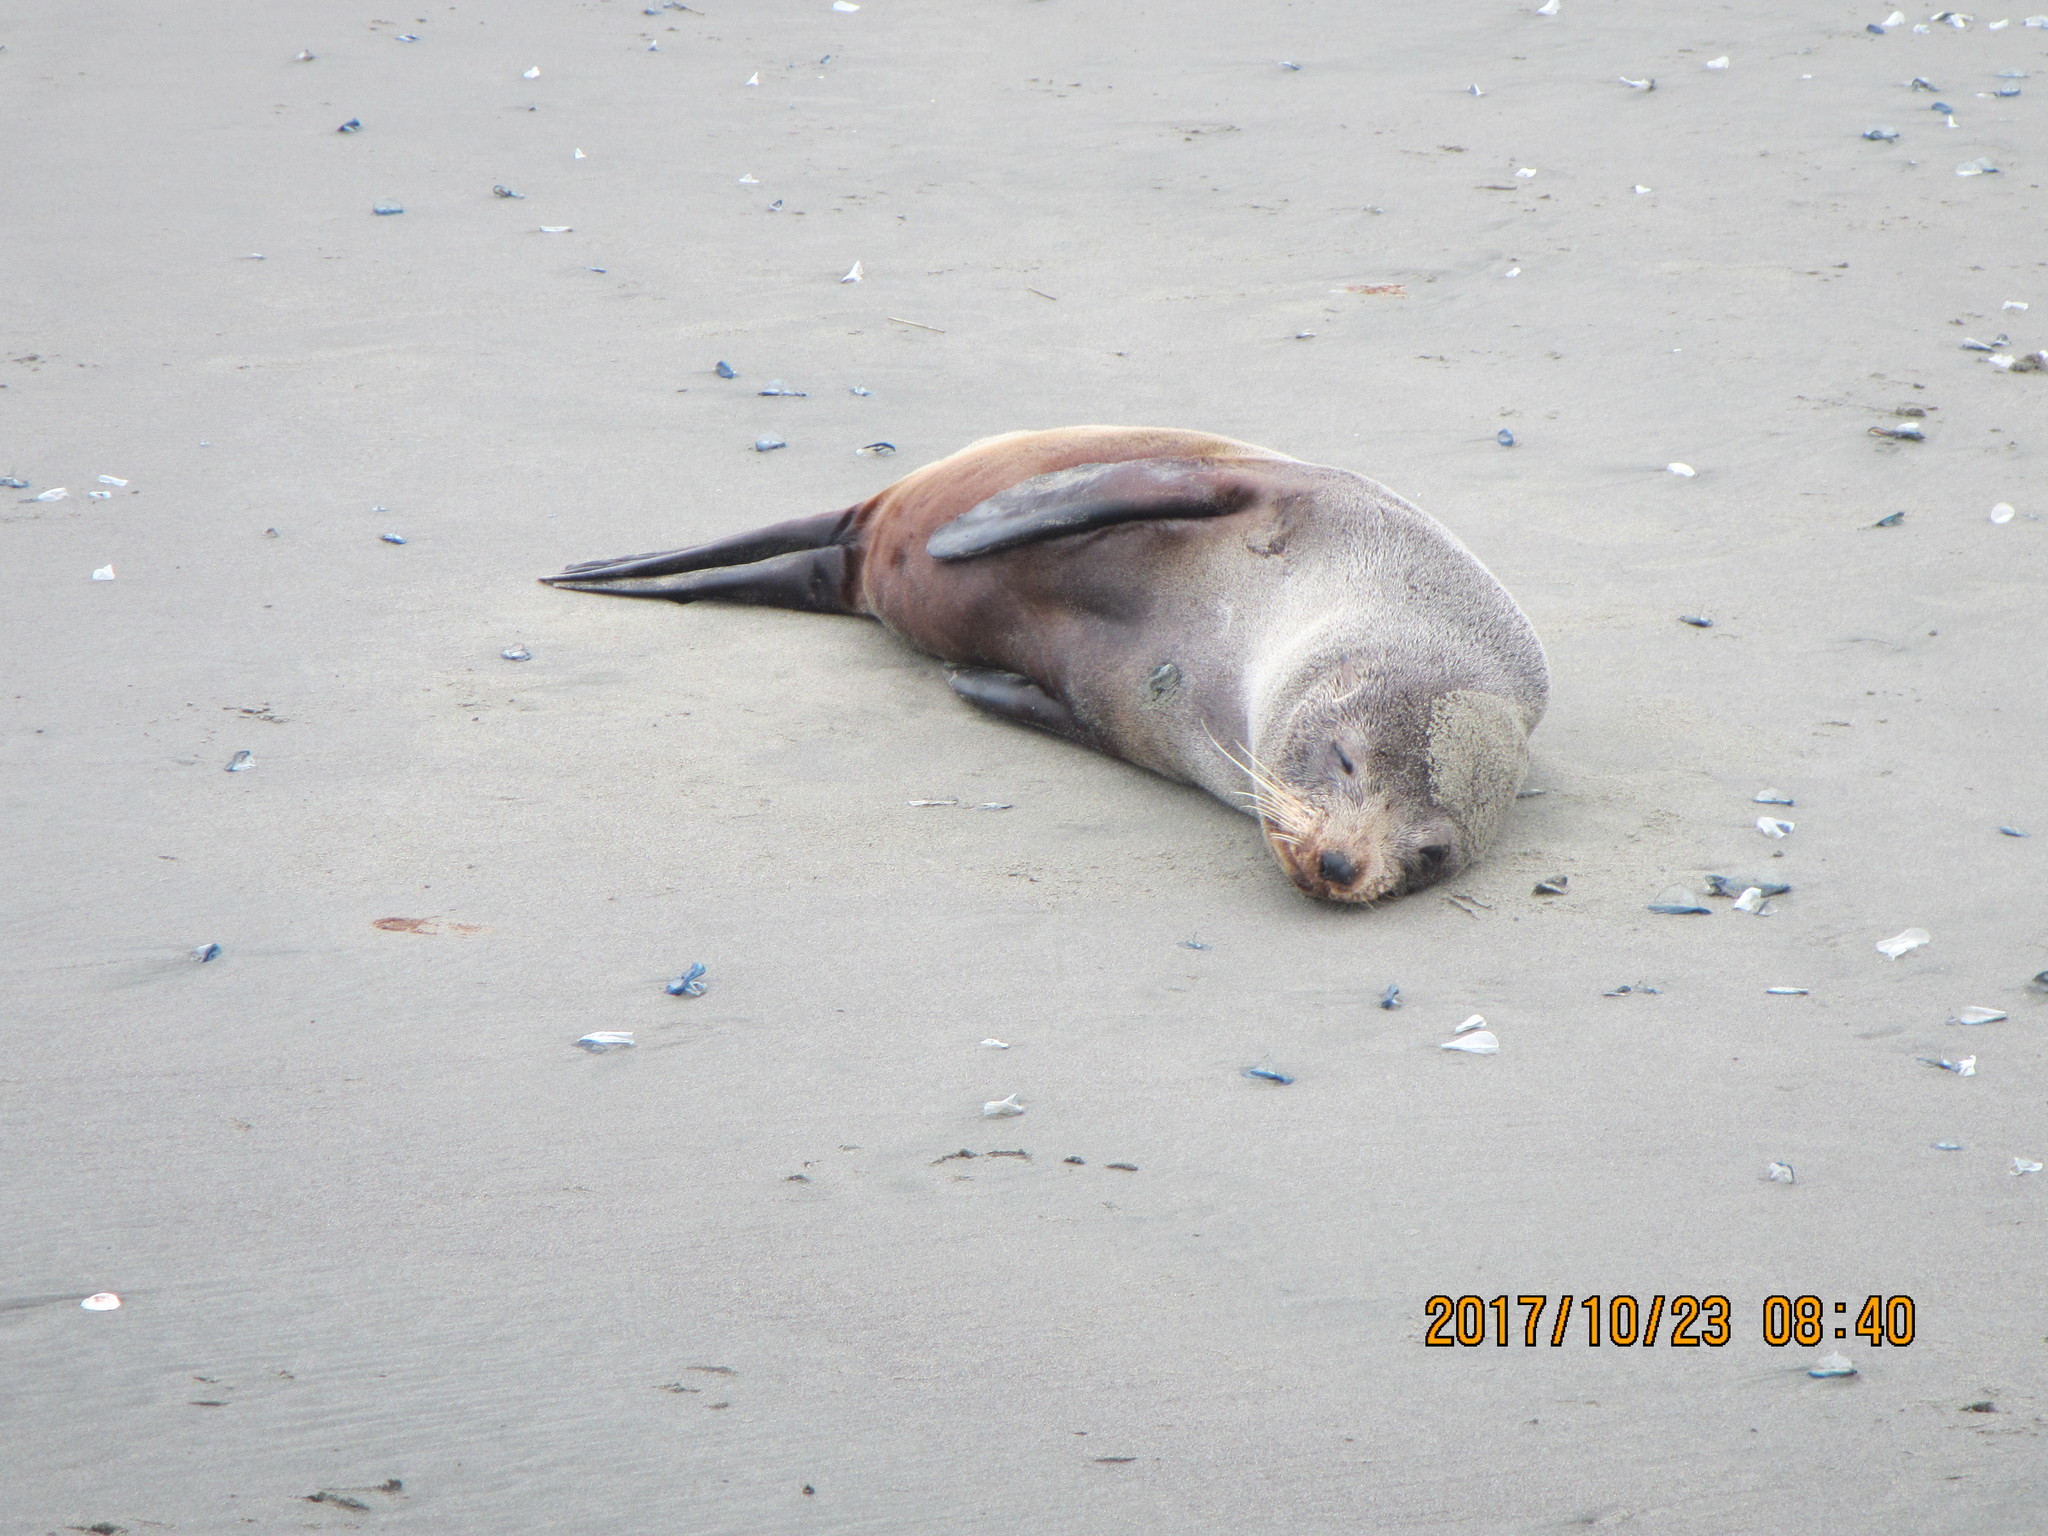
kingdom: Animalia
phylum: Chordata
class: Mammalia
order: Carnivora
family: Otariidae
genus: Arctocephalus
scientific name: Arctocephalus forsteri
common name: New zealand fur seal
